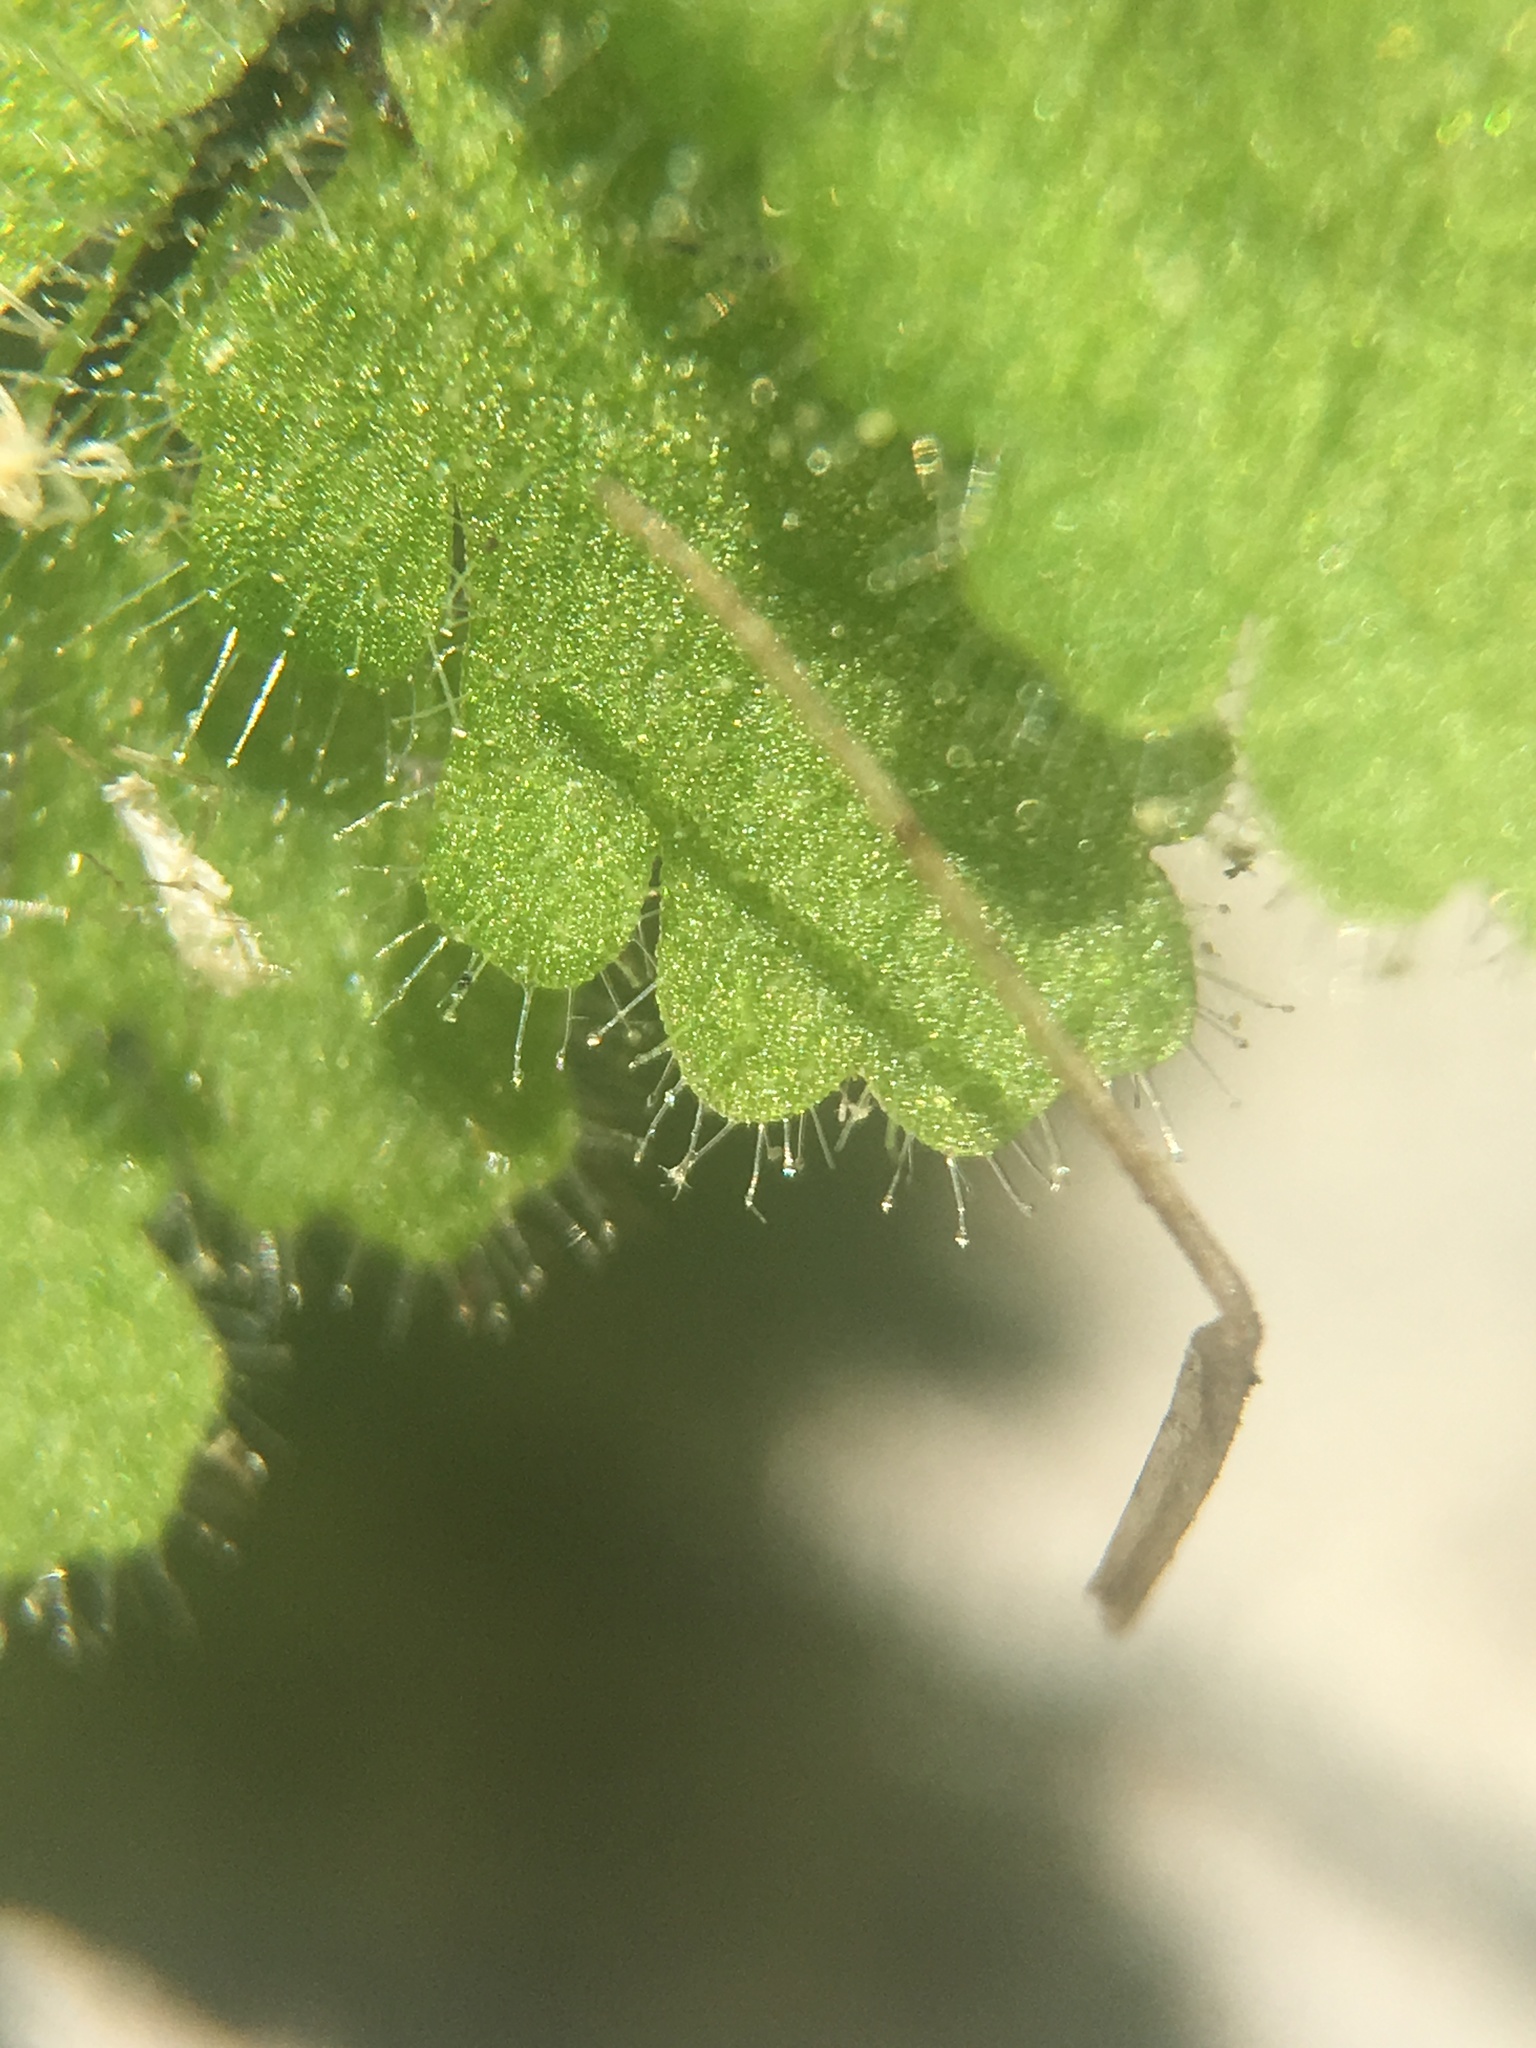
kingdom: Plantae
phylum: Tracheophyta
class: Polypodiopsida
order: Polypodiales
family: Pteridaceae
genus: Myriopteris
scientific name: Myriopteris cooperae
